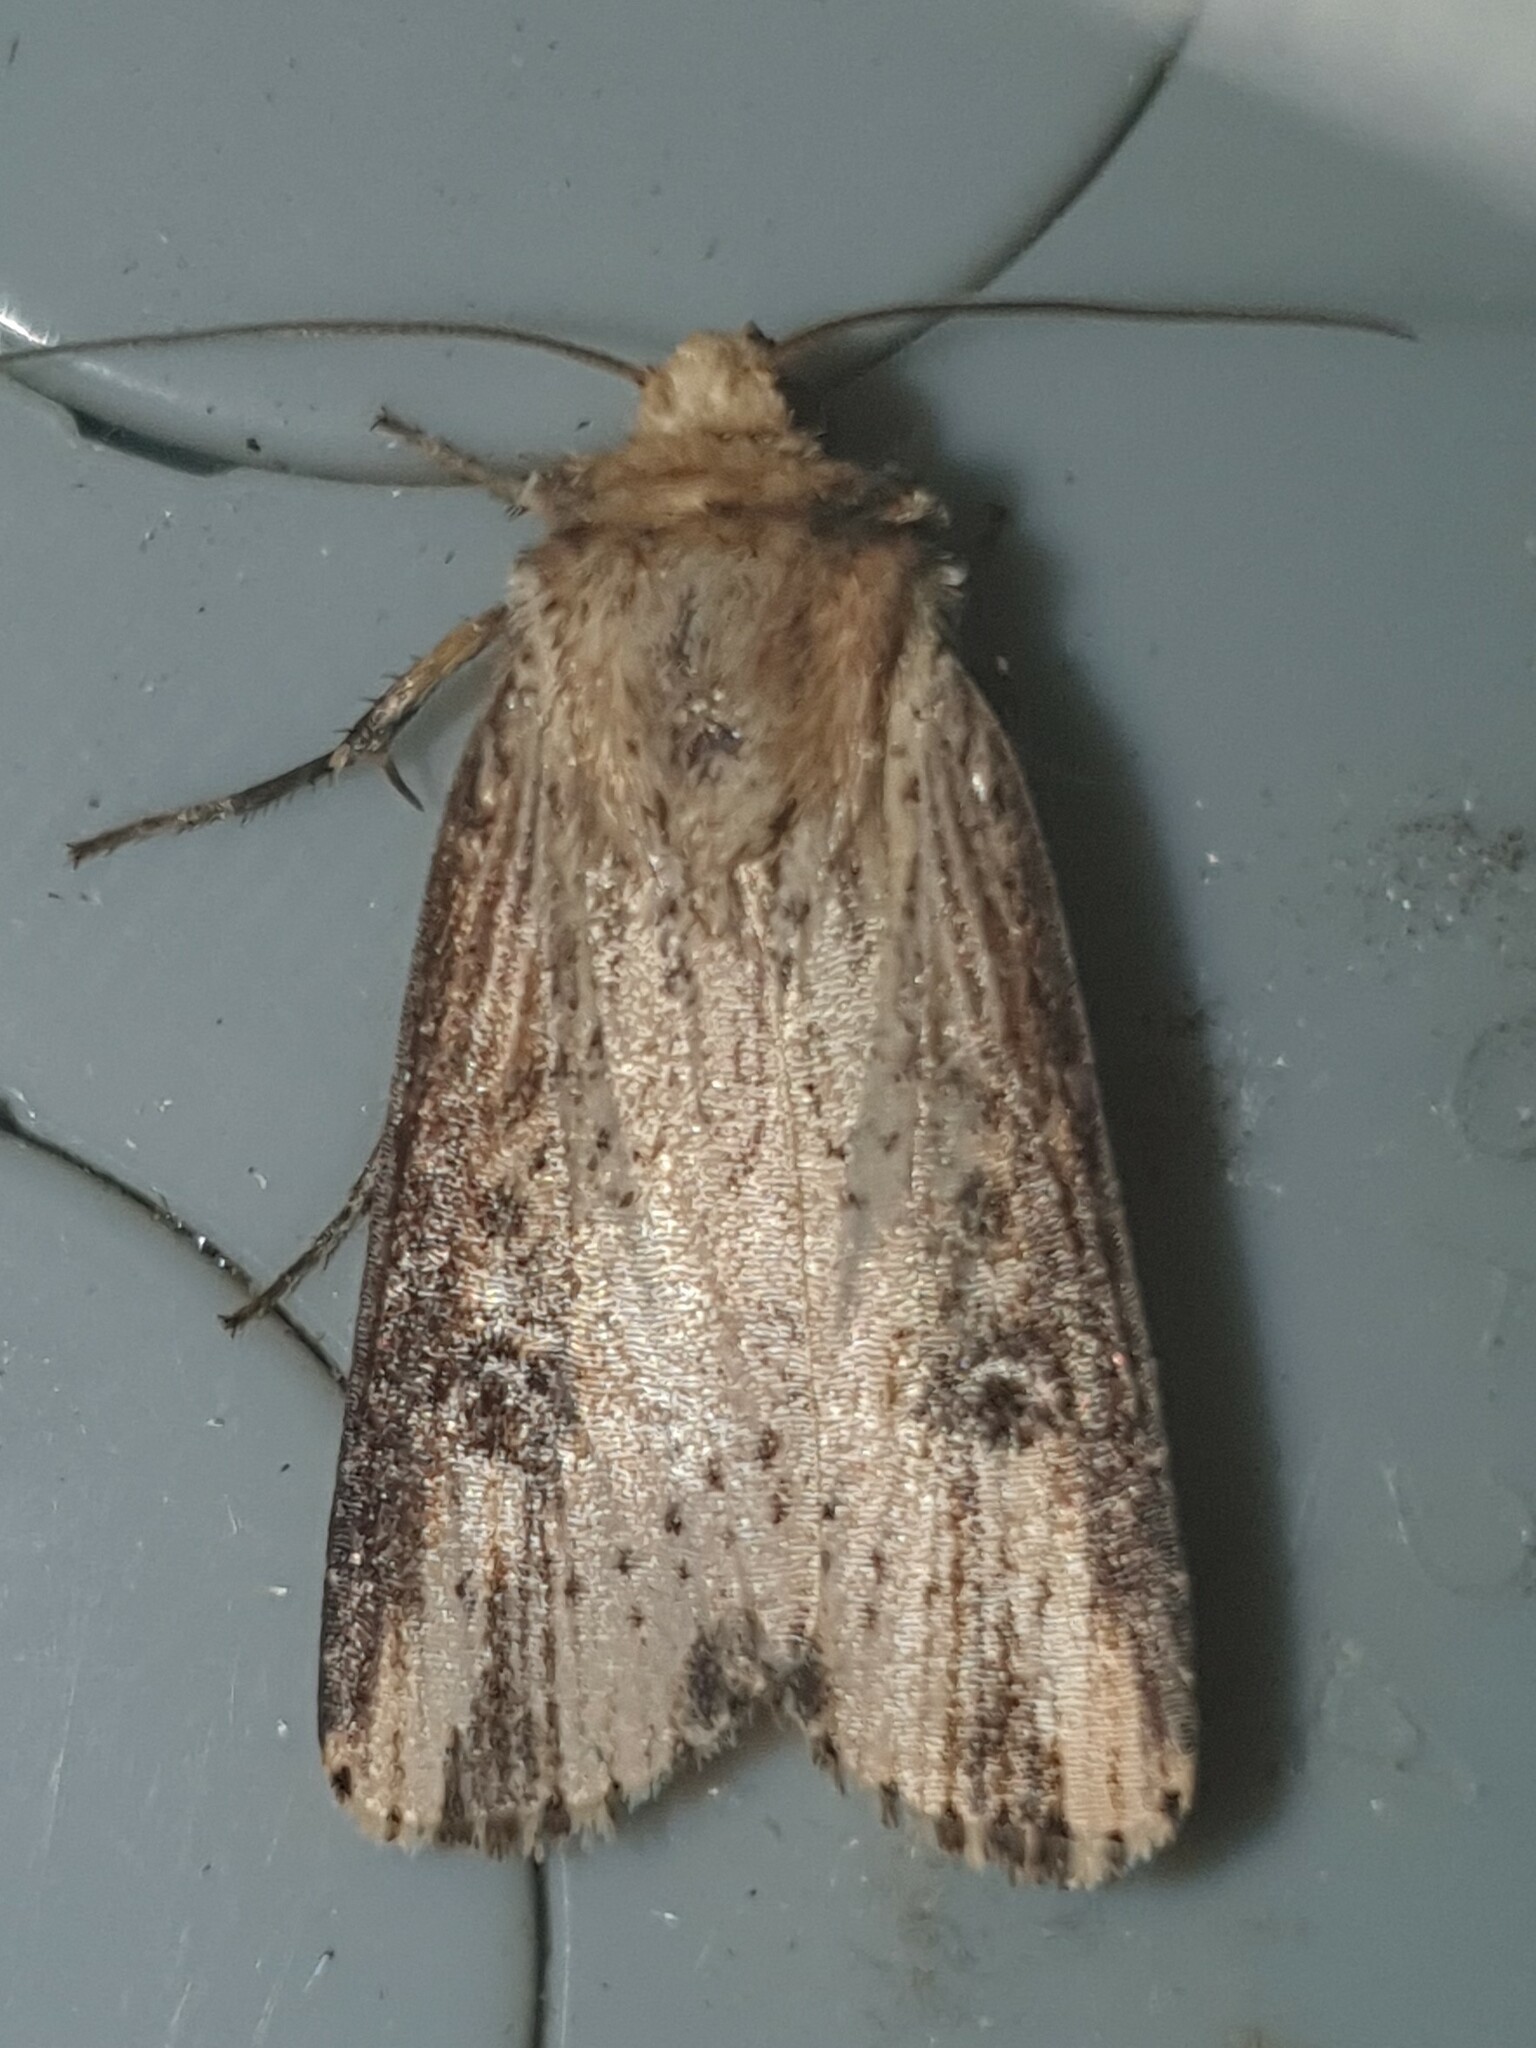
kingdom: Animalia
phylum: Arthropoda
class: Insecta
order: Lepidoptera
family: Noctuidae
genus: Axylia
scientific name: Axylia putris
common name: Flame
